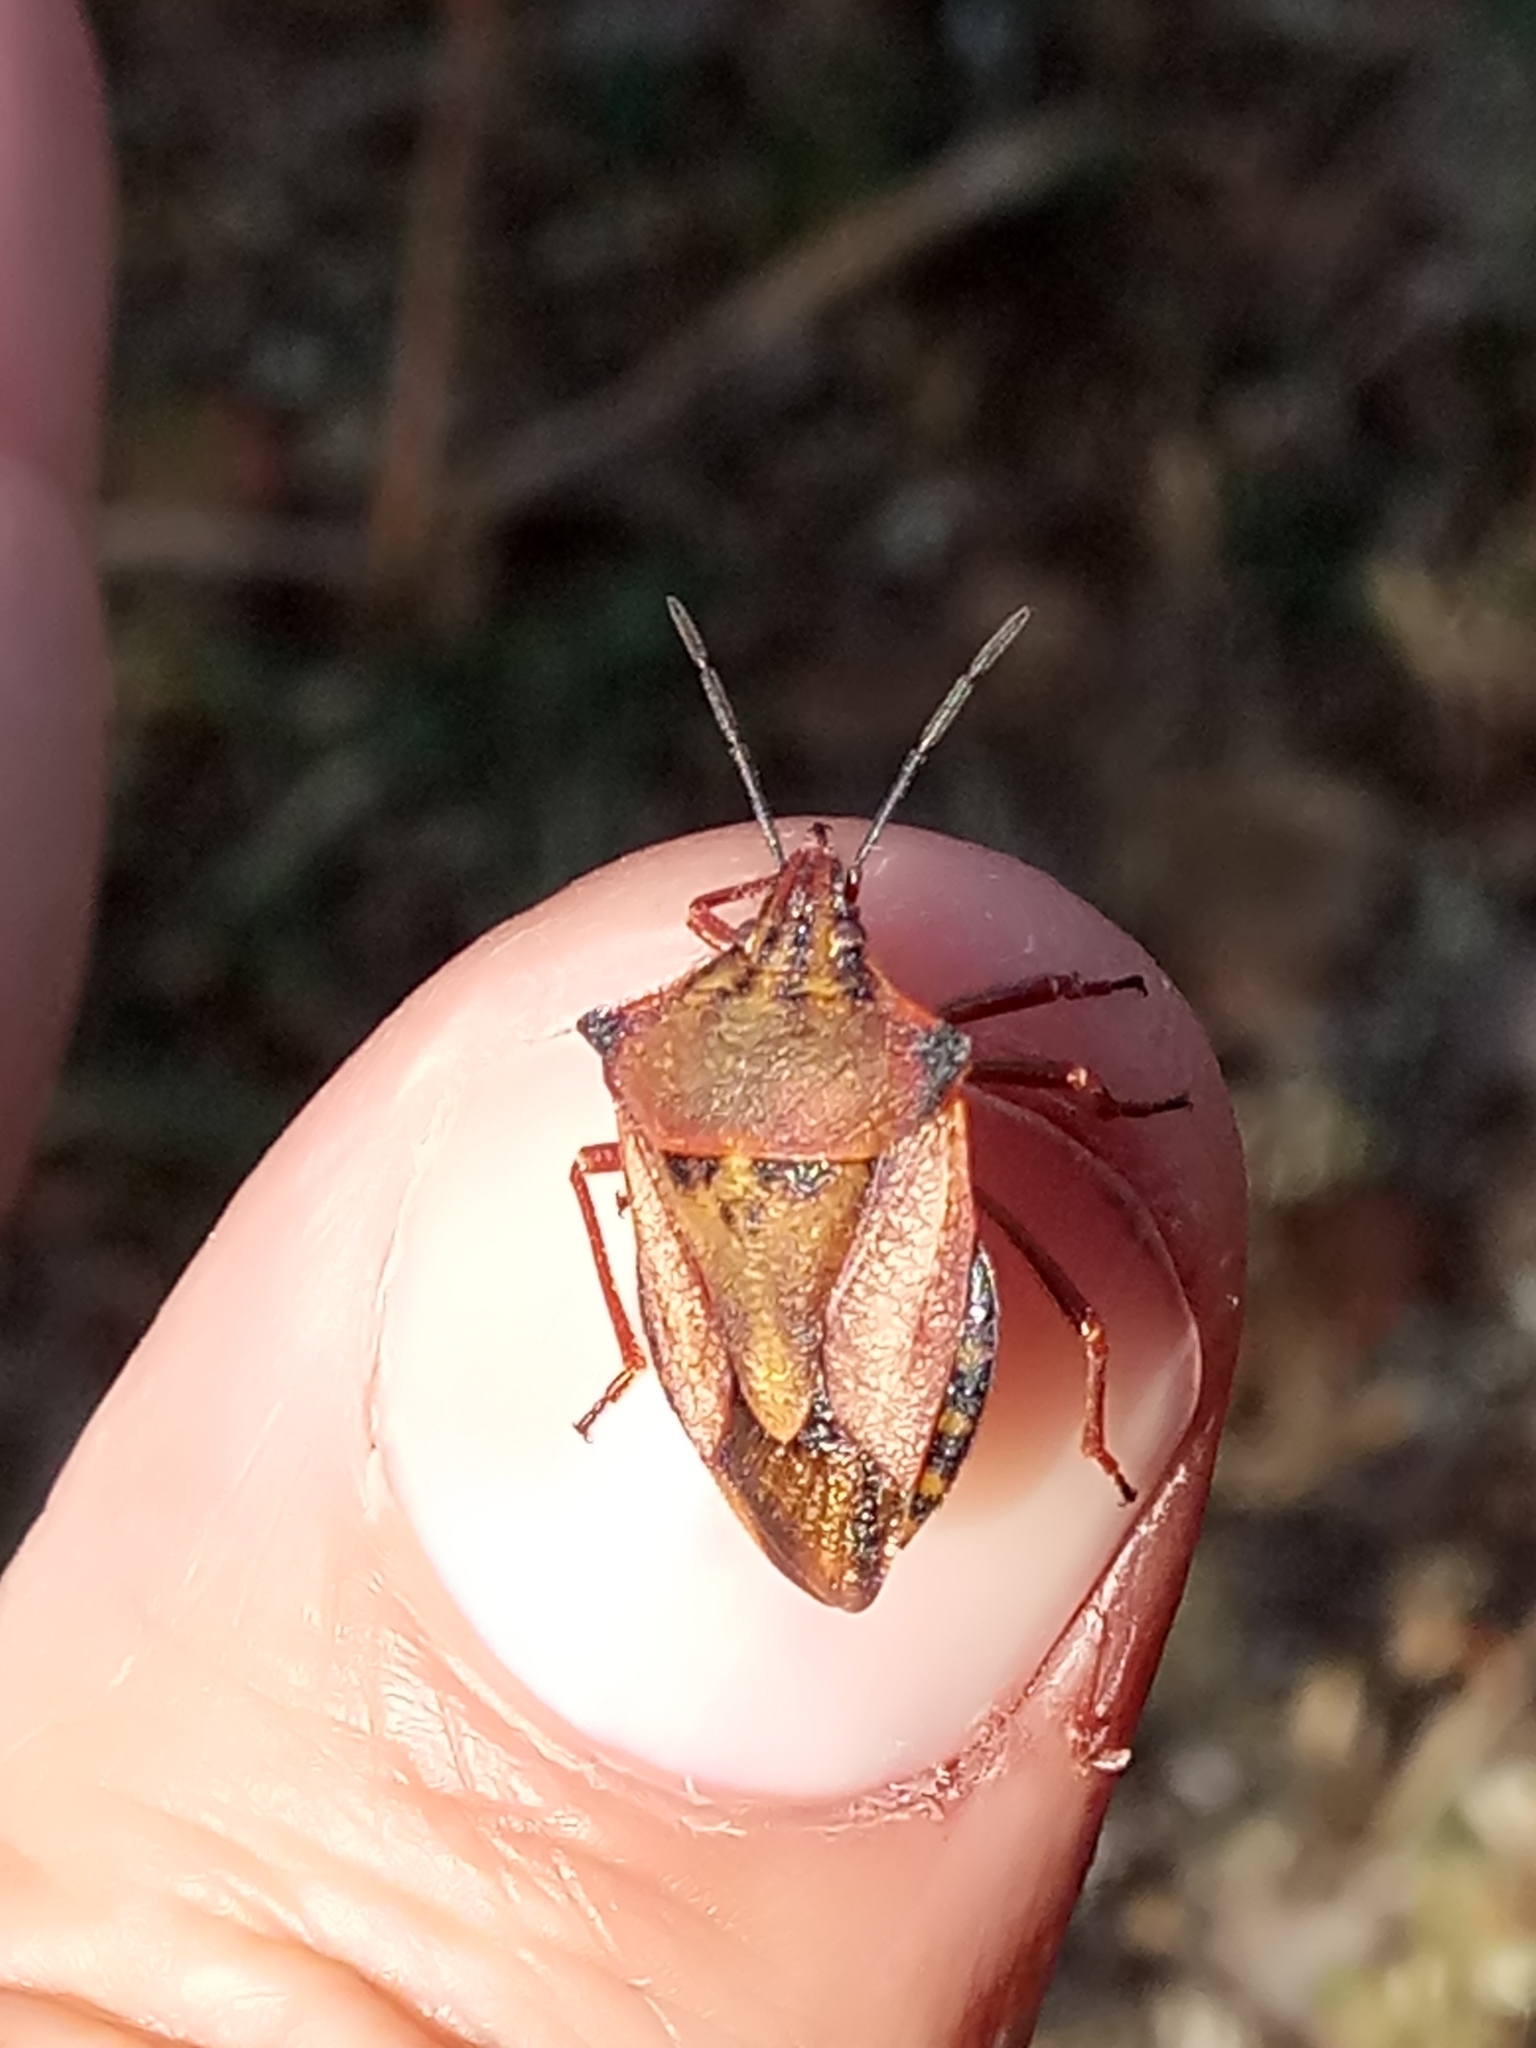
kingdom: Animalia
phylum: Arthropoda
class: Insecta
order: Hemiptera
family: Pentatomidae
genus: Carpocoris
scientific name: Carpocoris mediterraneus
